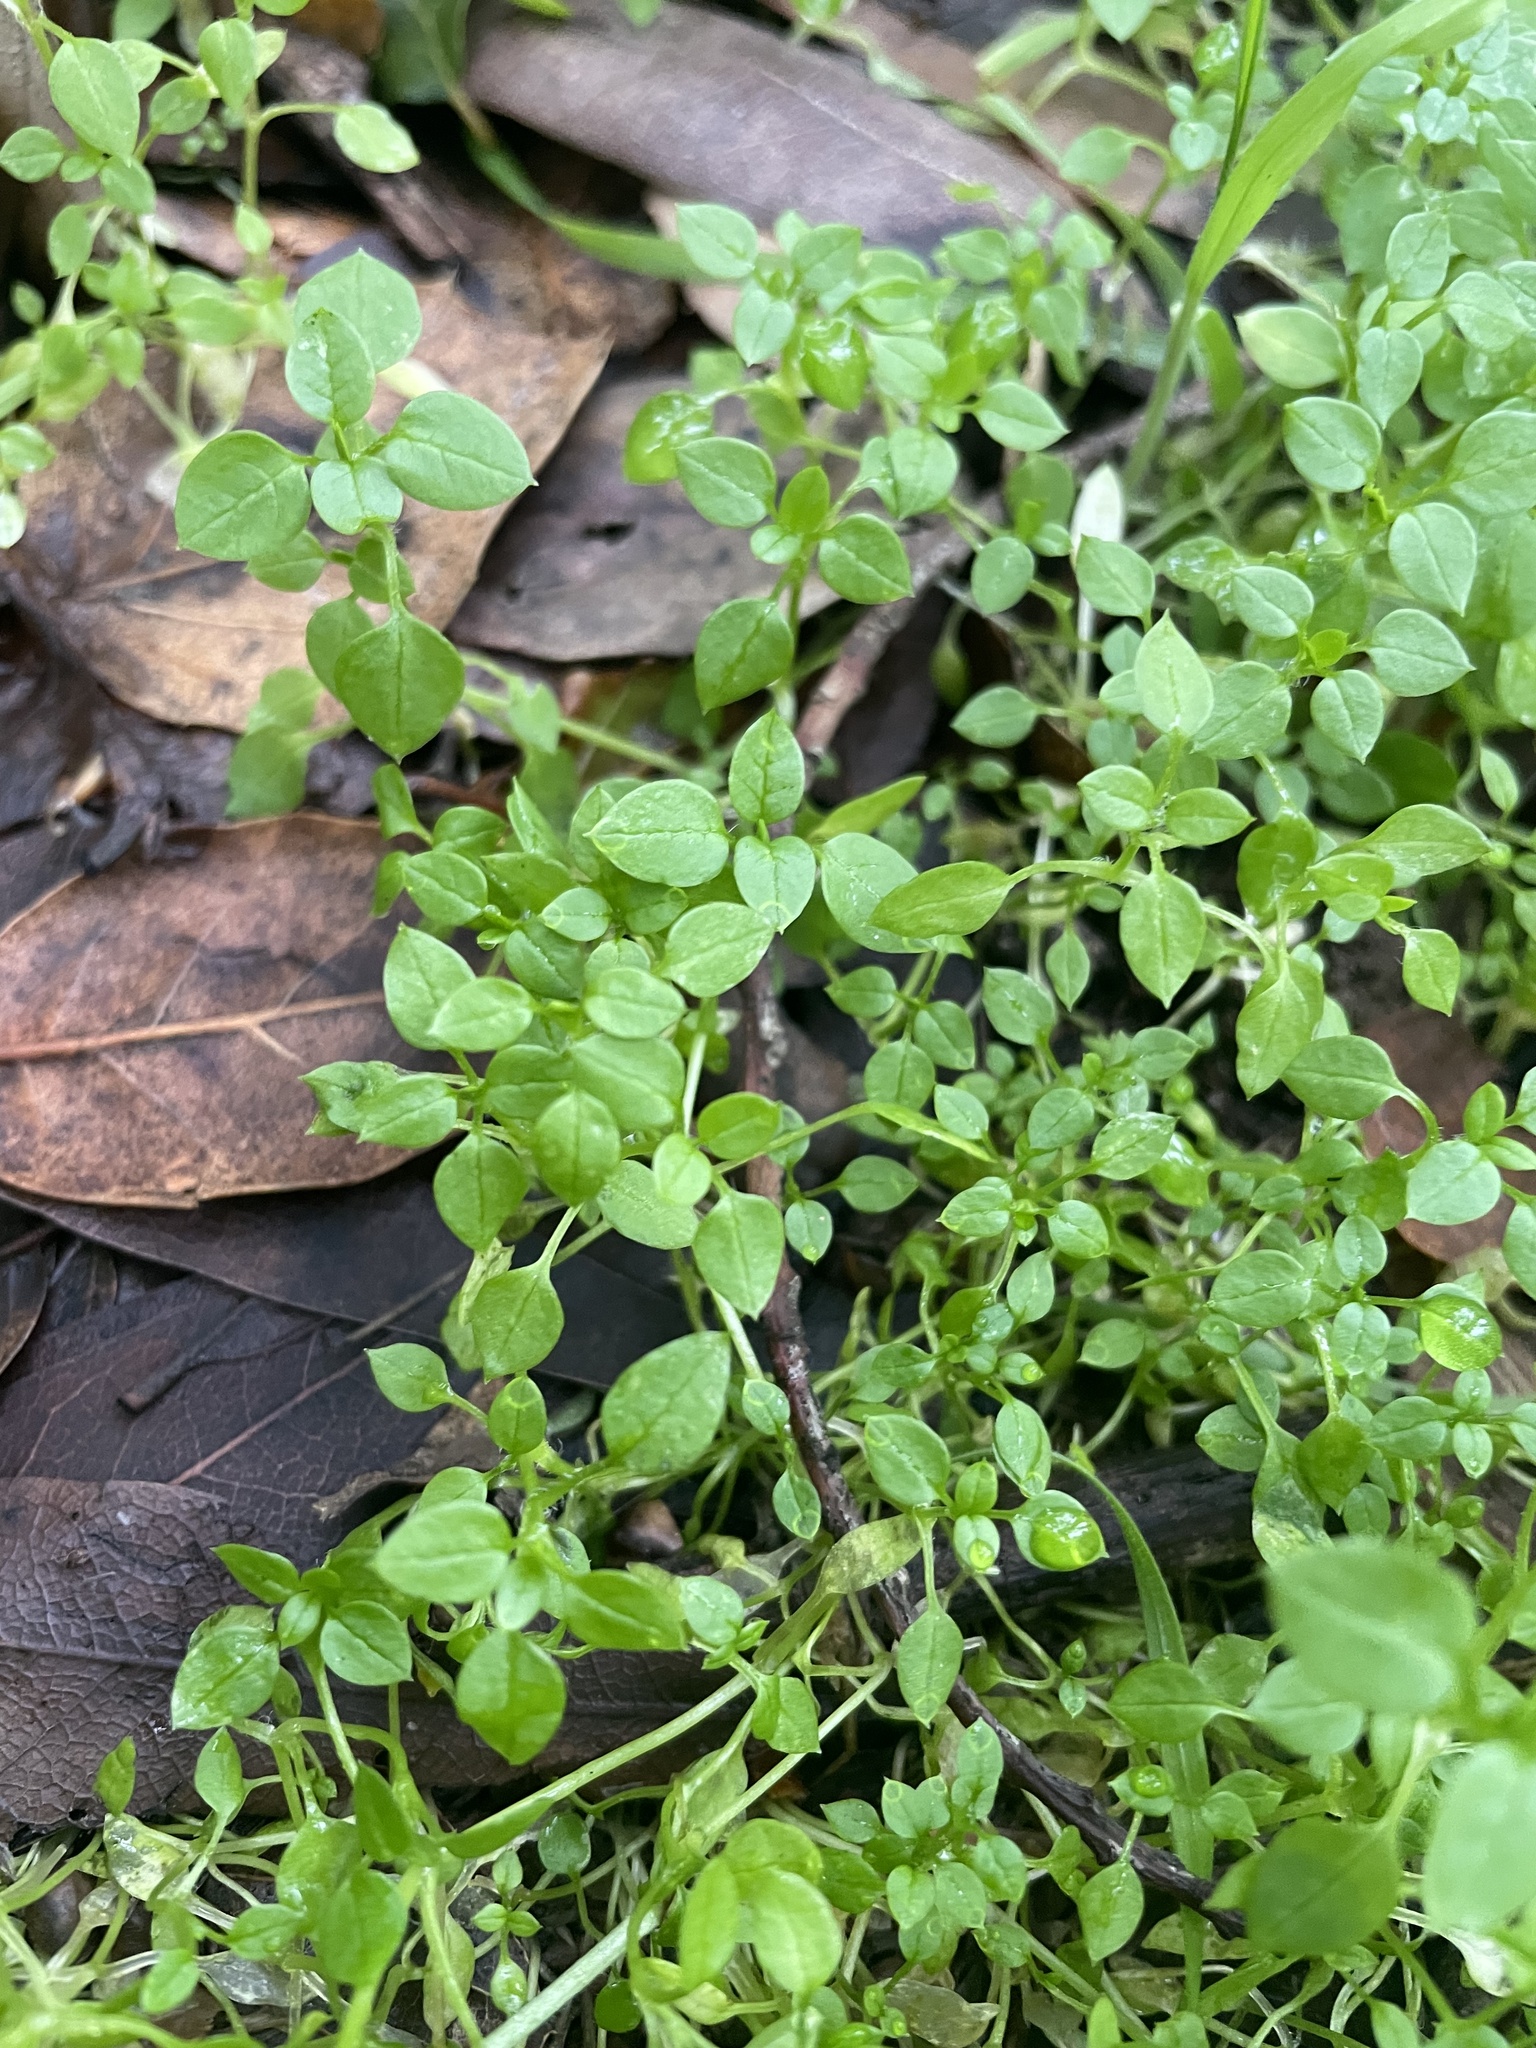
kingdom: Plantae
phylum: Tracheophyta
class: Magnoliopsida
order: Caryophyllales
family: Caryophyllaceae
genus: Stellaria
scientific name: Stellaria media
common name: Common chickweed
